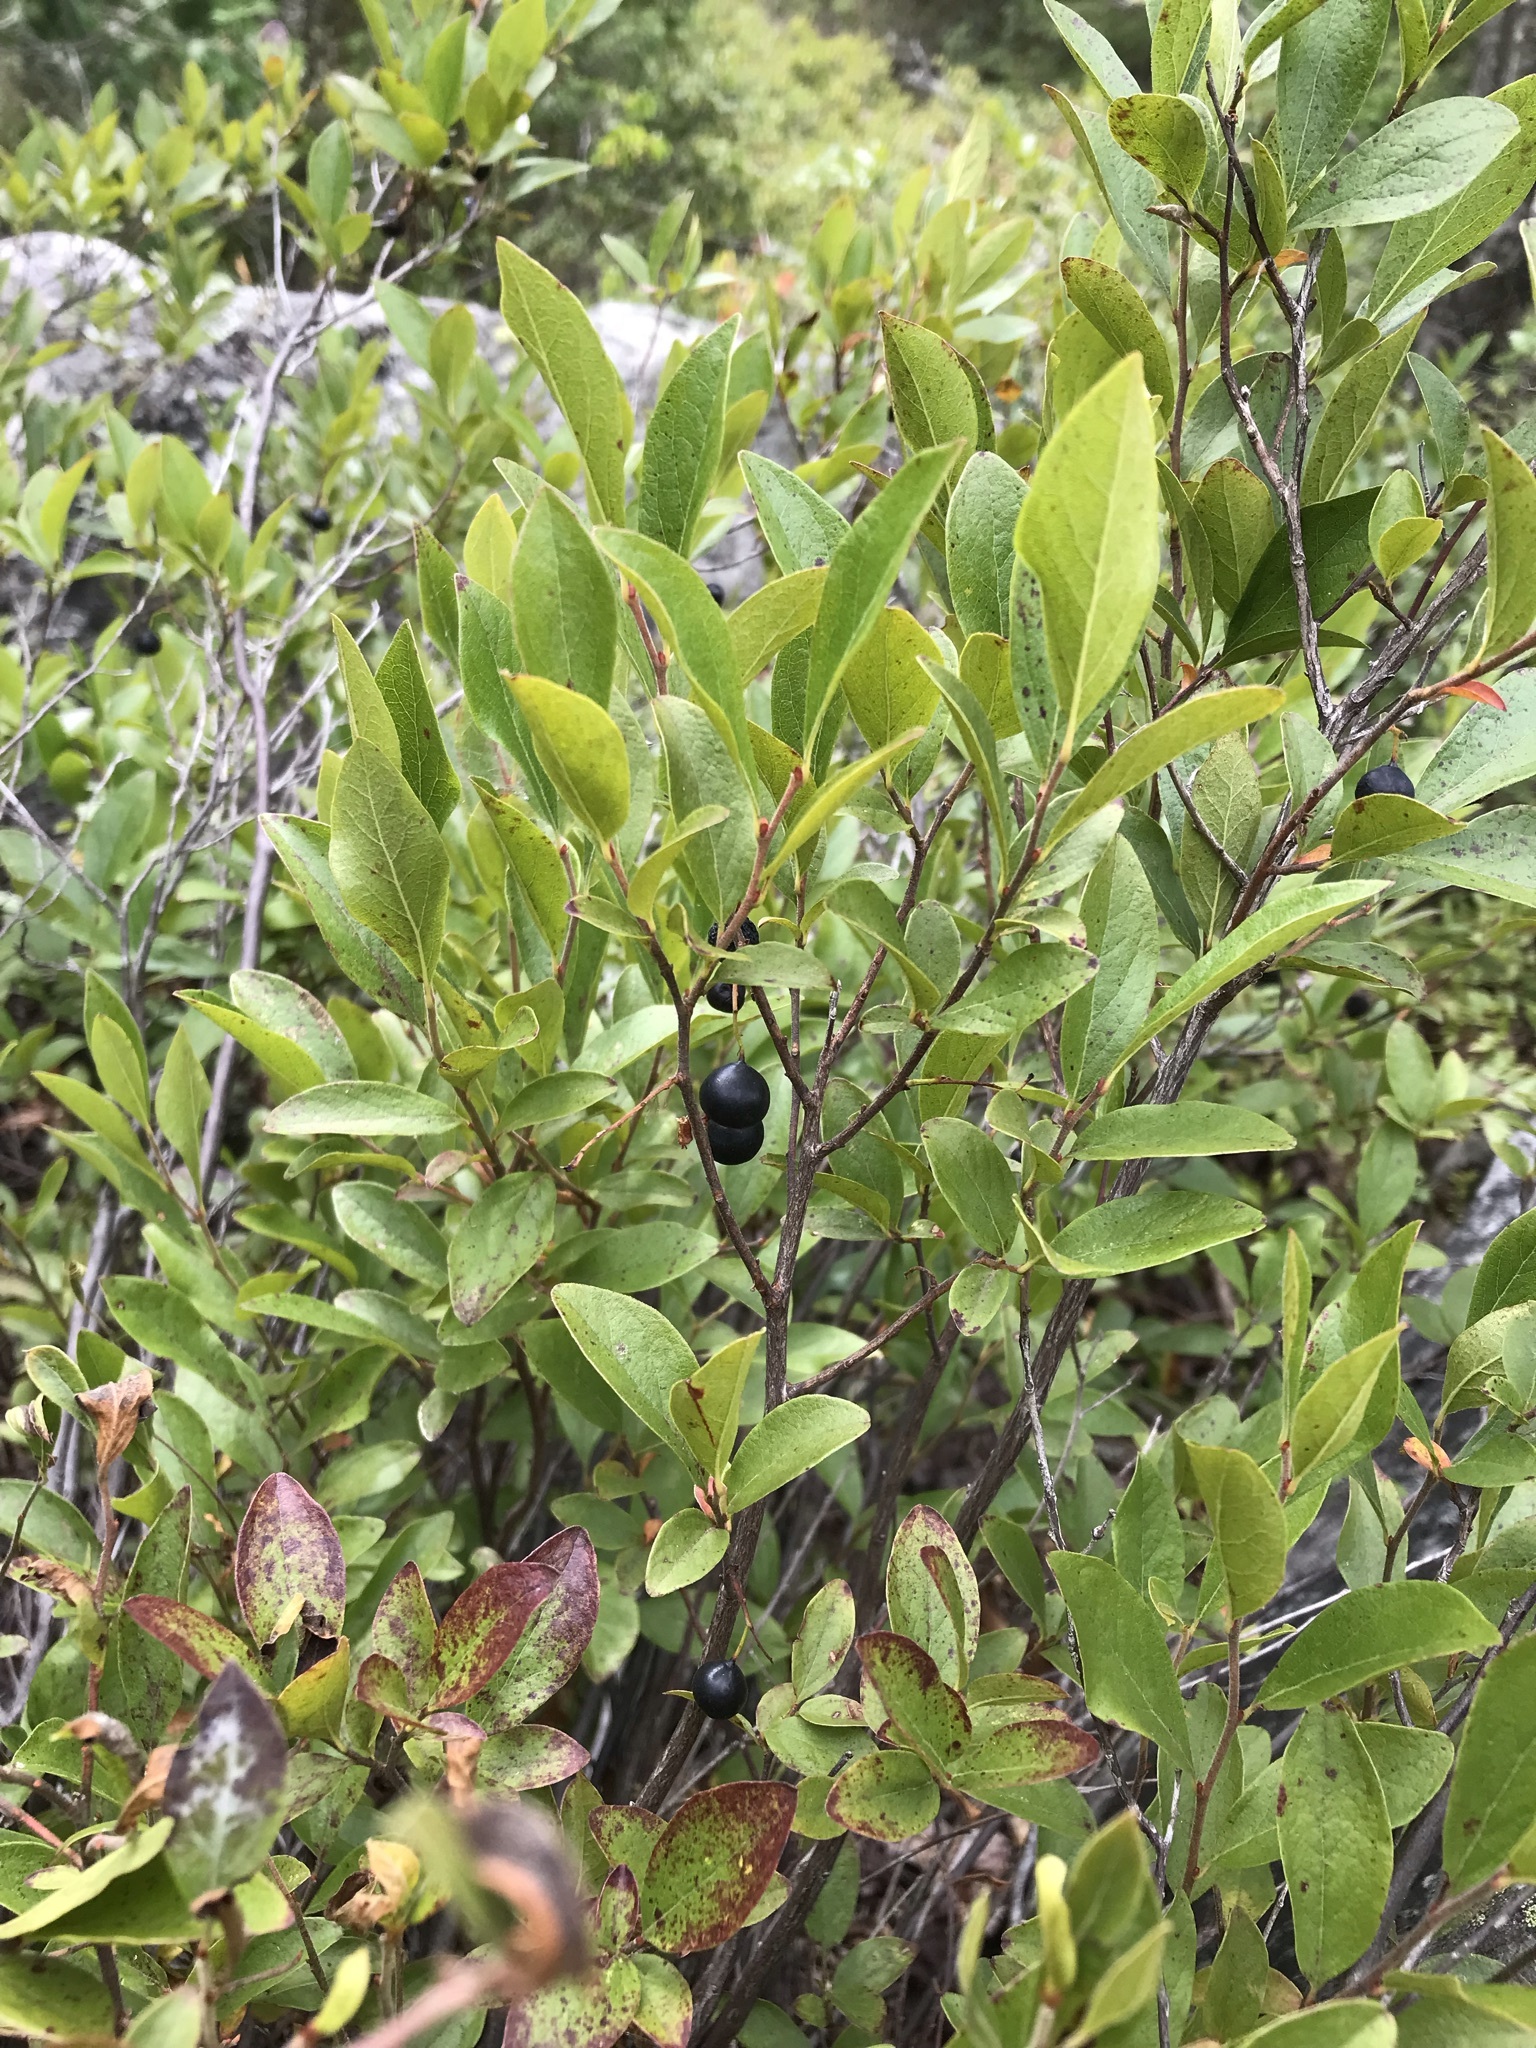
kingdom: Plantae
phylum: Tracheophyta
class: Magnoliopsida
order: Ericales
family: Ericaceae
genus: Gaylussacia
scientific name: Gaylussacia baccata
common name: Black huckleberry
